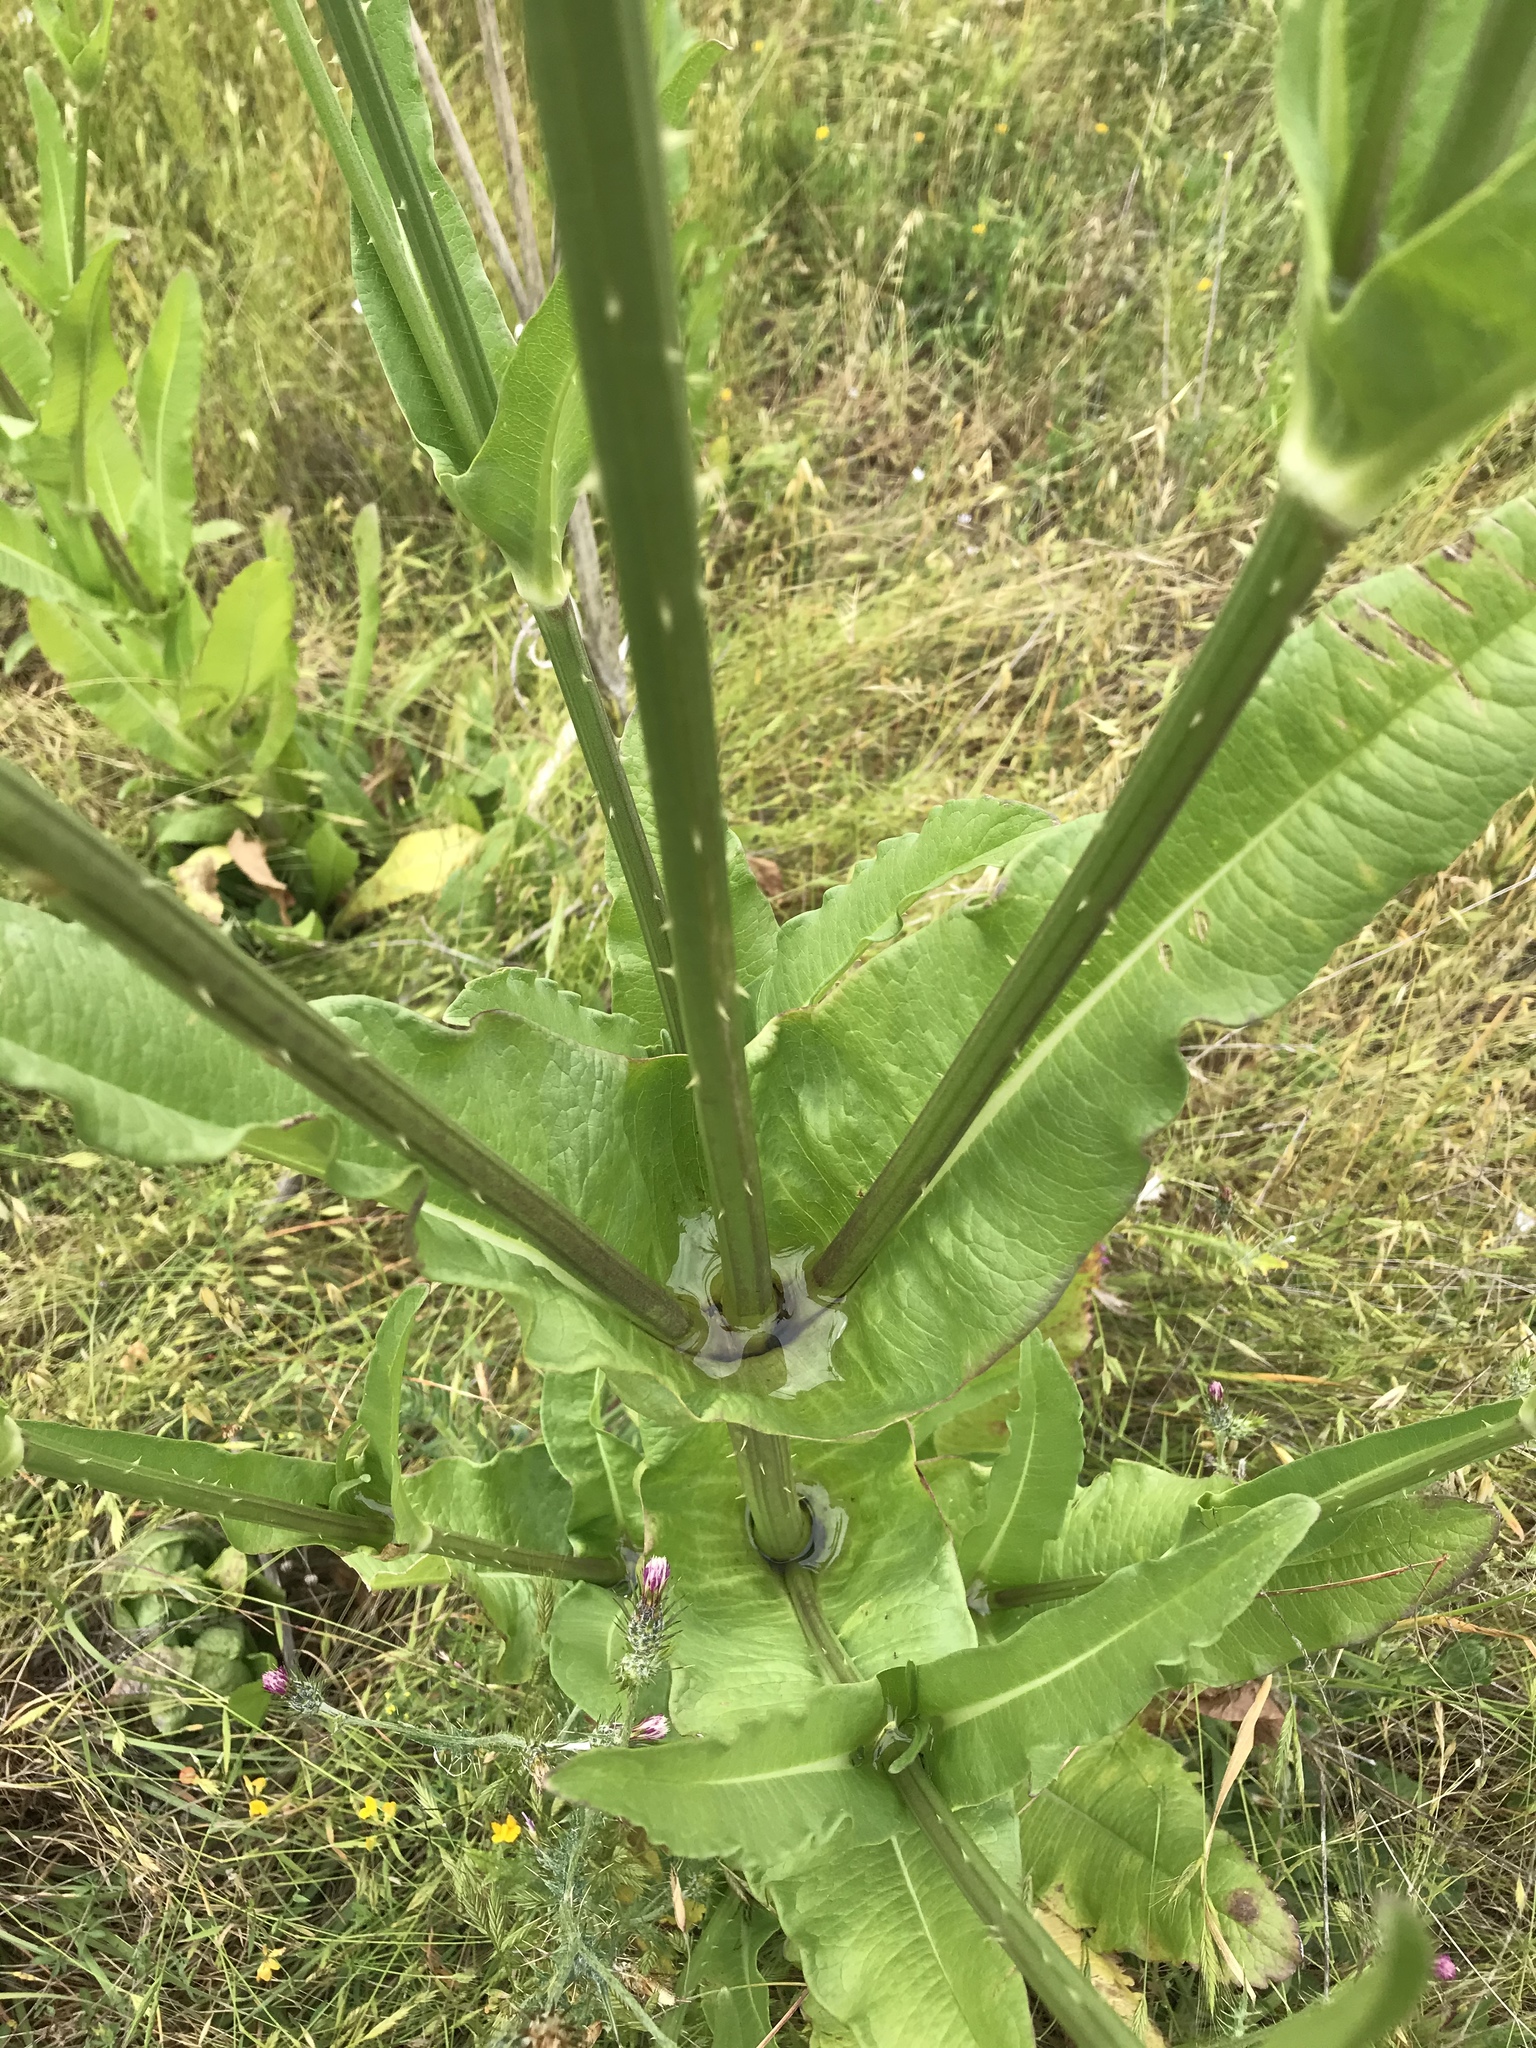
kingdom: Plantae
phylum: Tracheophyta
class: Magnoliopsida
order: Dipsacales
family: Caprifoliaceae
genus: Dipsacus
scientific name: Dipsacus sativus
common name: Fuller's teasel
